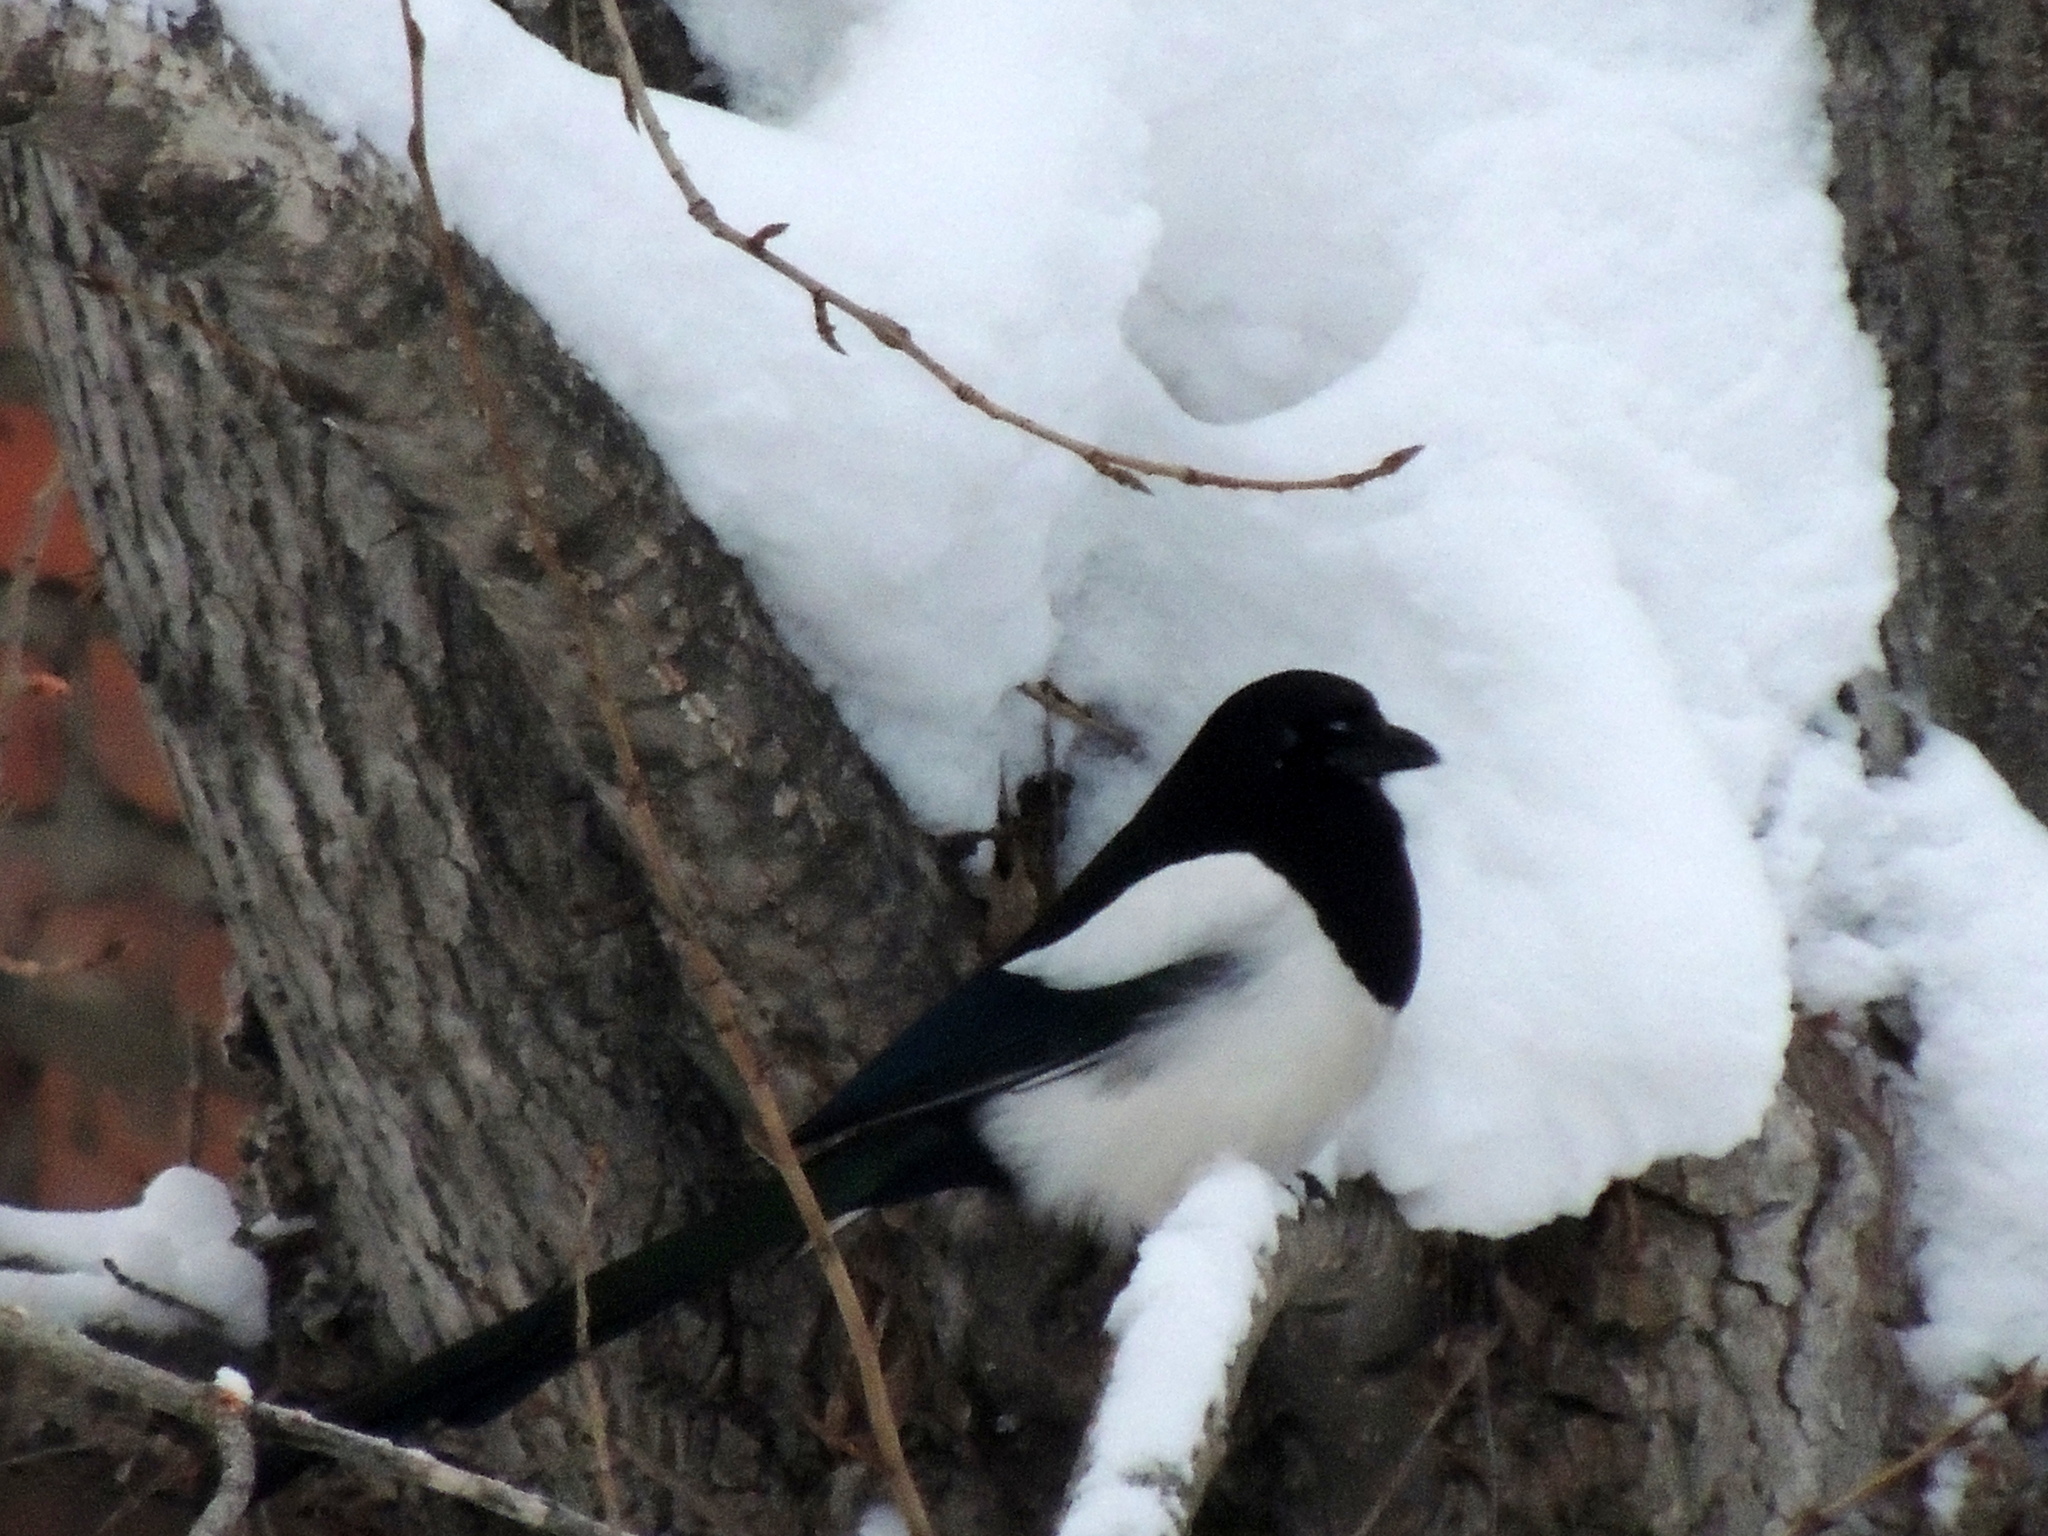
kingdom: Animalia
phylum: Chordata
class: Aves
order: Passeriformes
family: Corvidae
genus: Pica
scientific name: Pica pica
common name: Eurasian magpie
